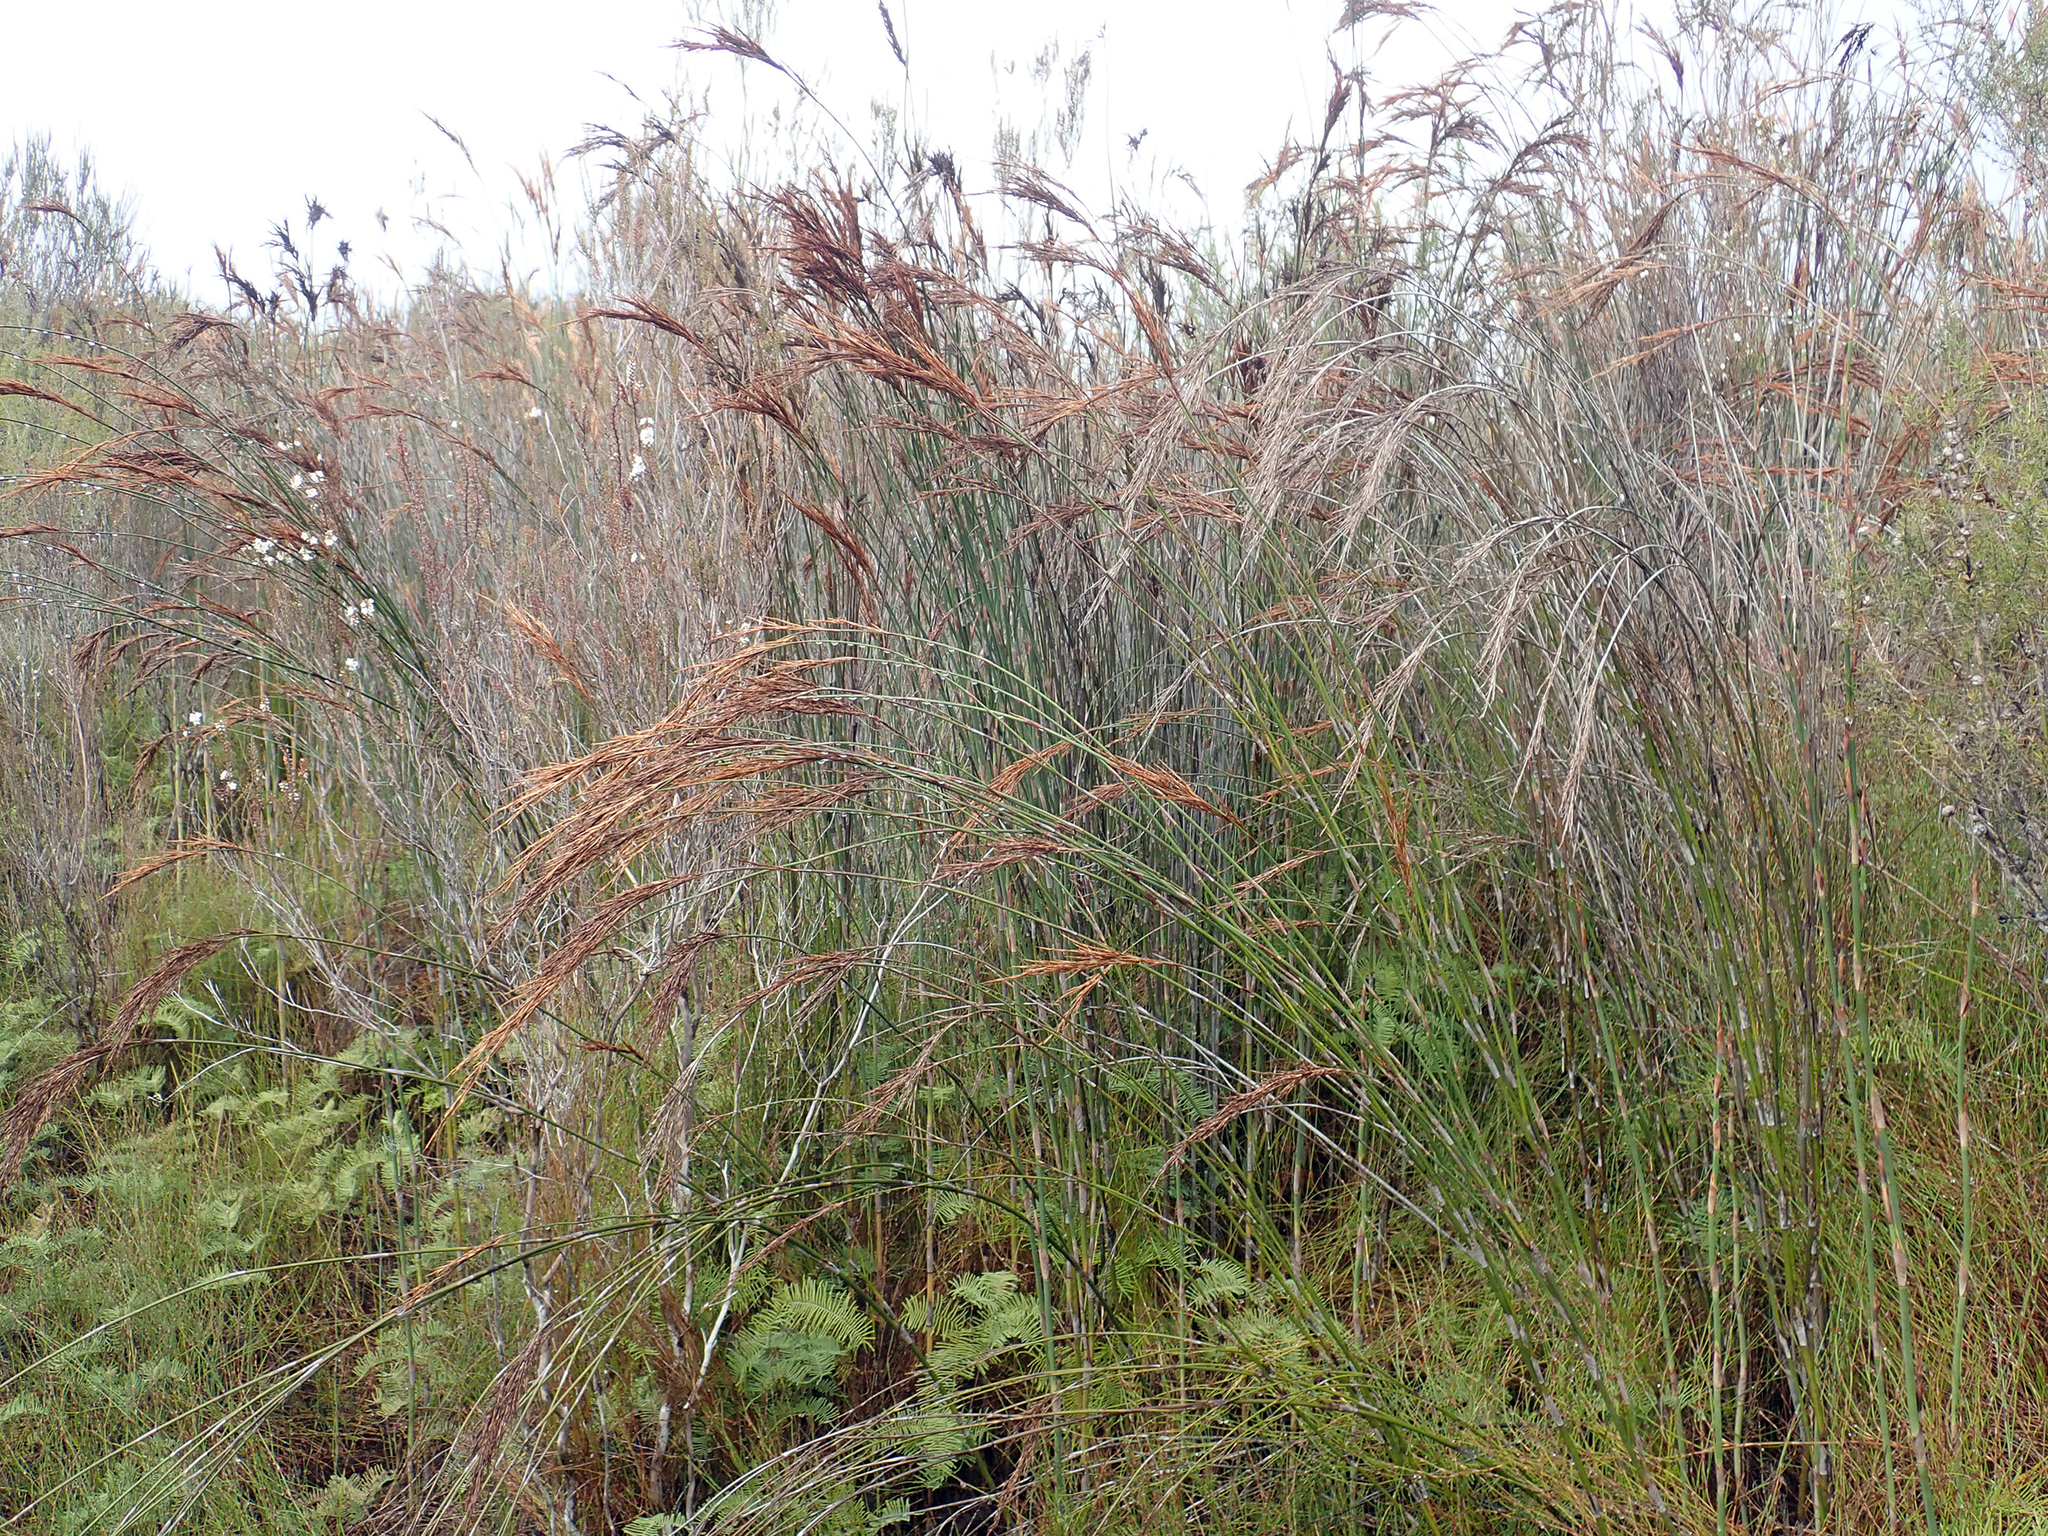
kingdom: Plantae
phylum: Tracheophyta
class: Liliopsida
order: Poales
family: Restionaceae
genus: Sporadanthus
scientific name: Sporadanthus ferrugineus
